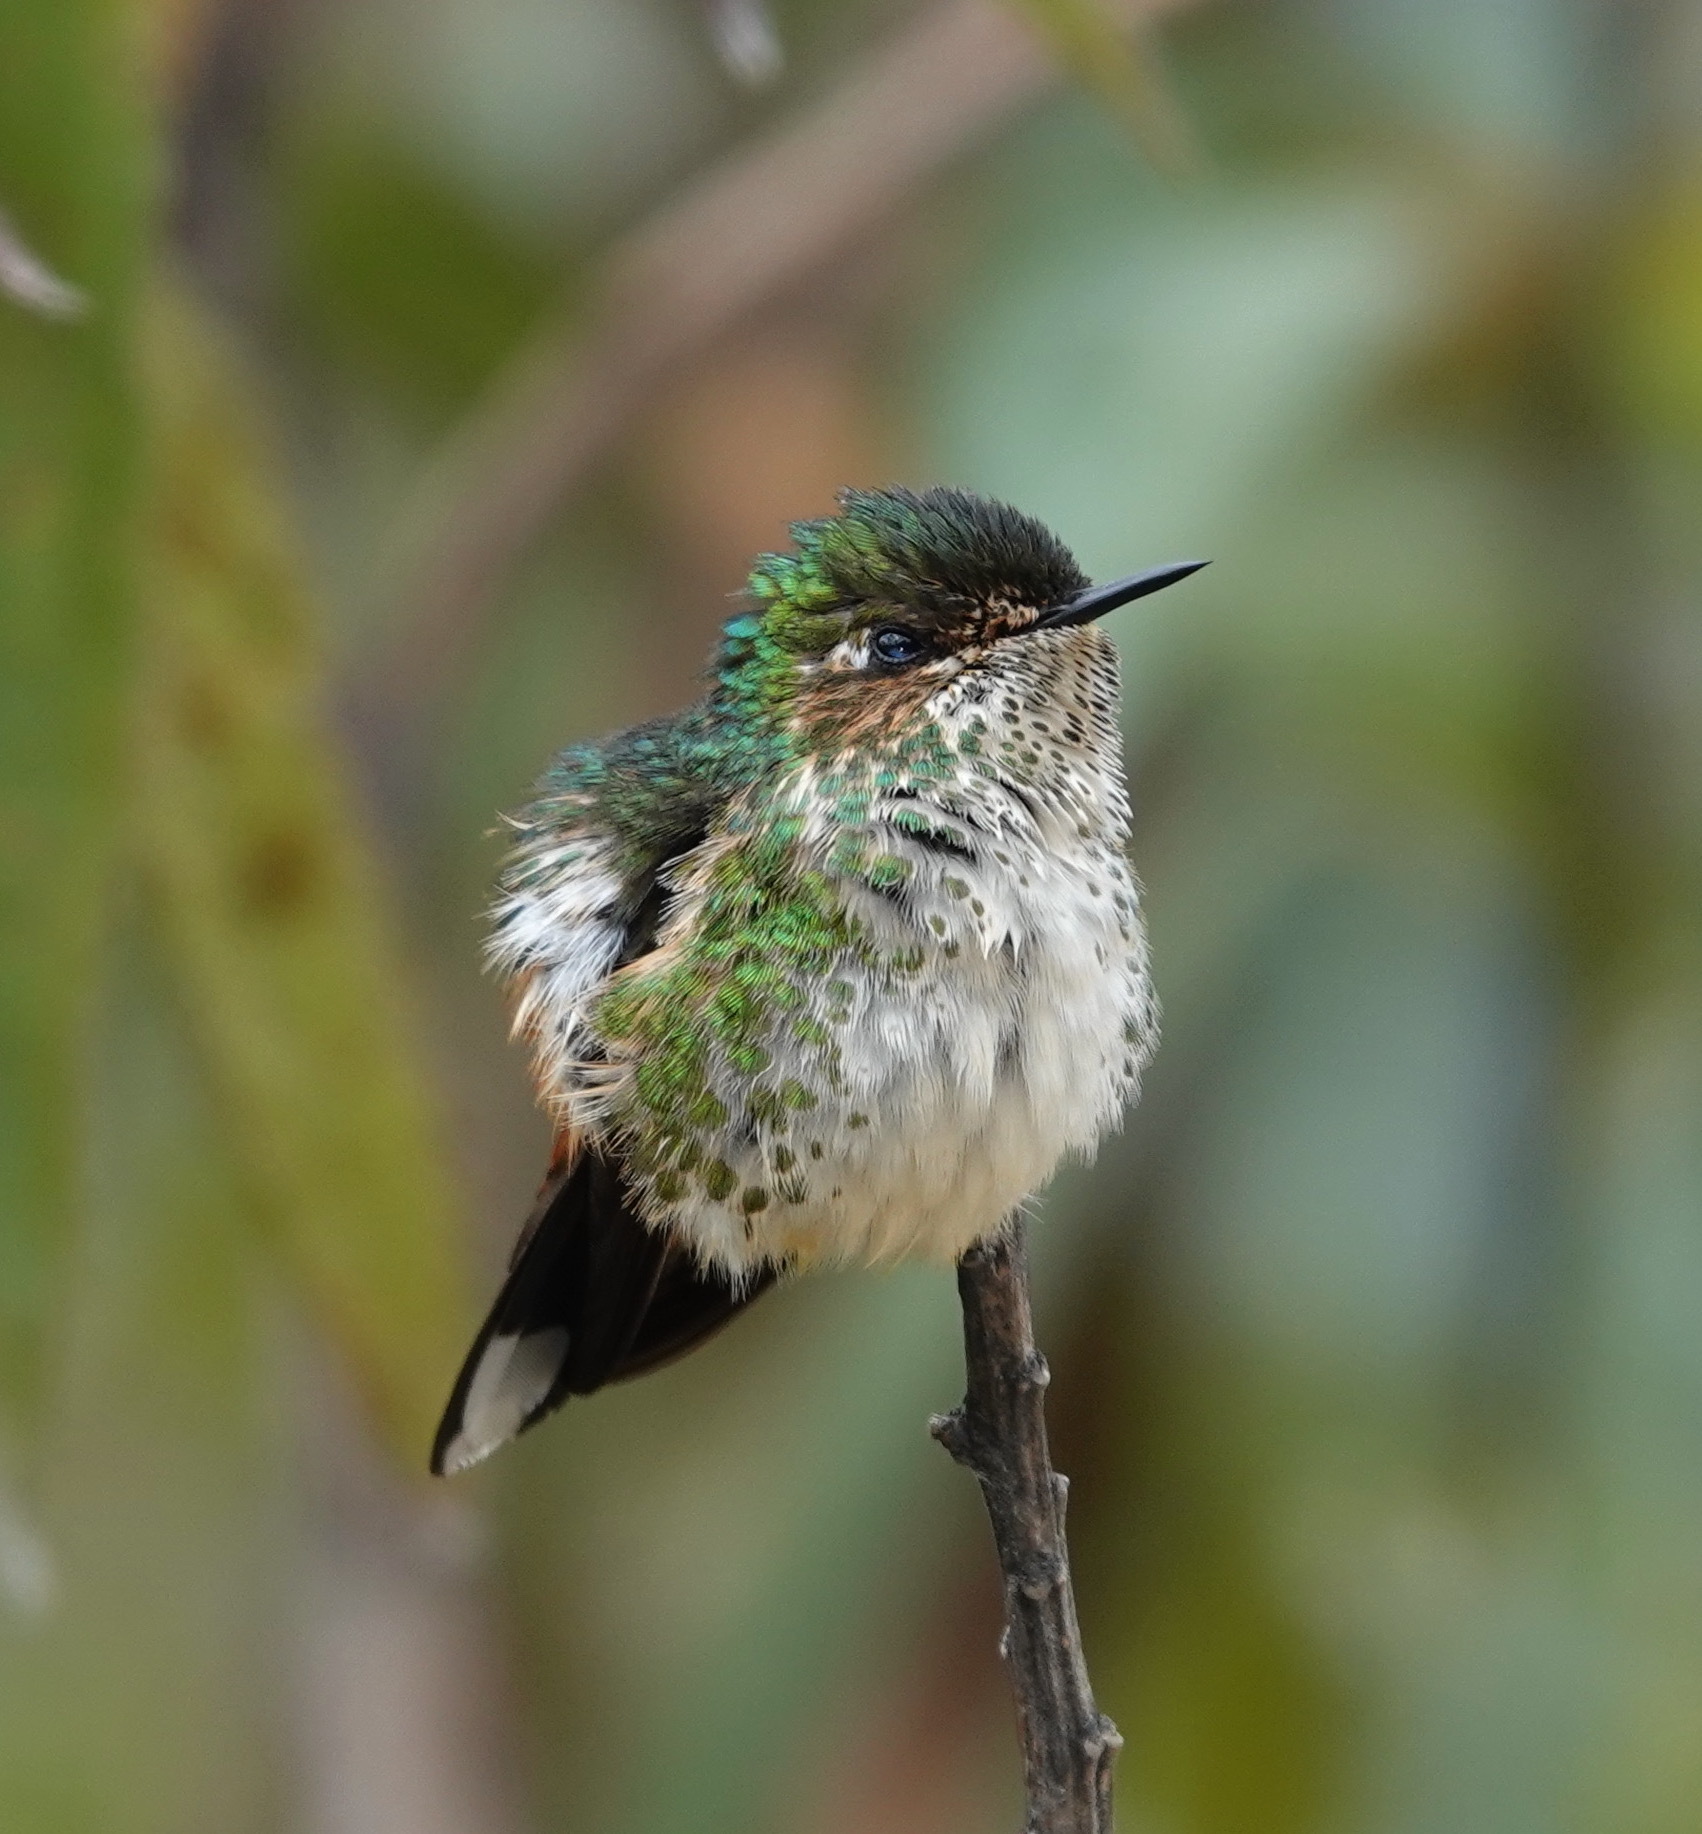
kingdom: Animalia
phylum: Chordata
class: Aves
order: Apodiformes
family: Trochilidae
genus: Ramphomicron
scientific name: Ramphomicron microrhynchum
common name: Purple-backed thornbill
